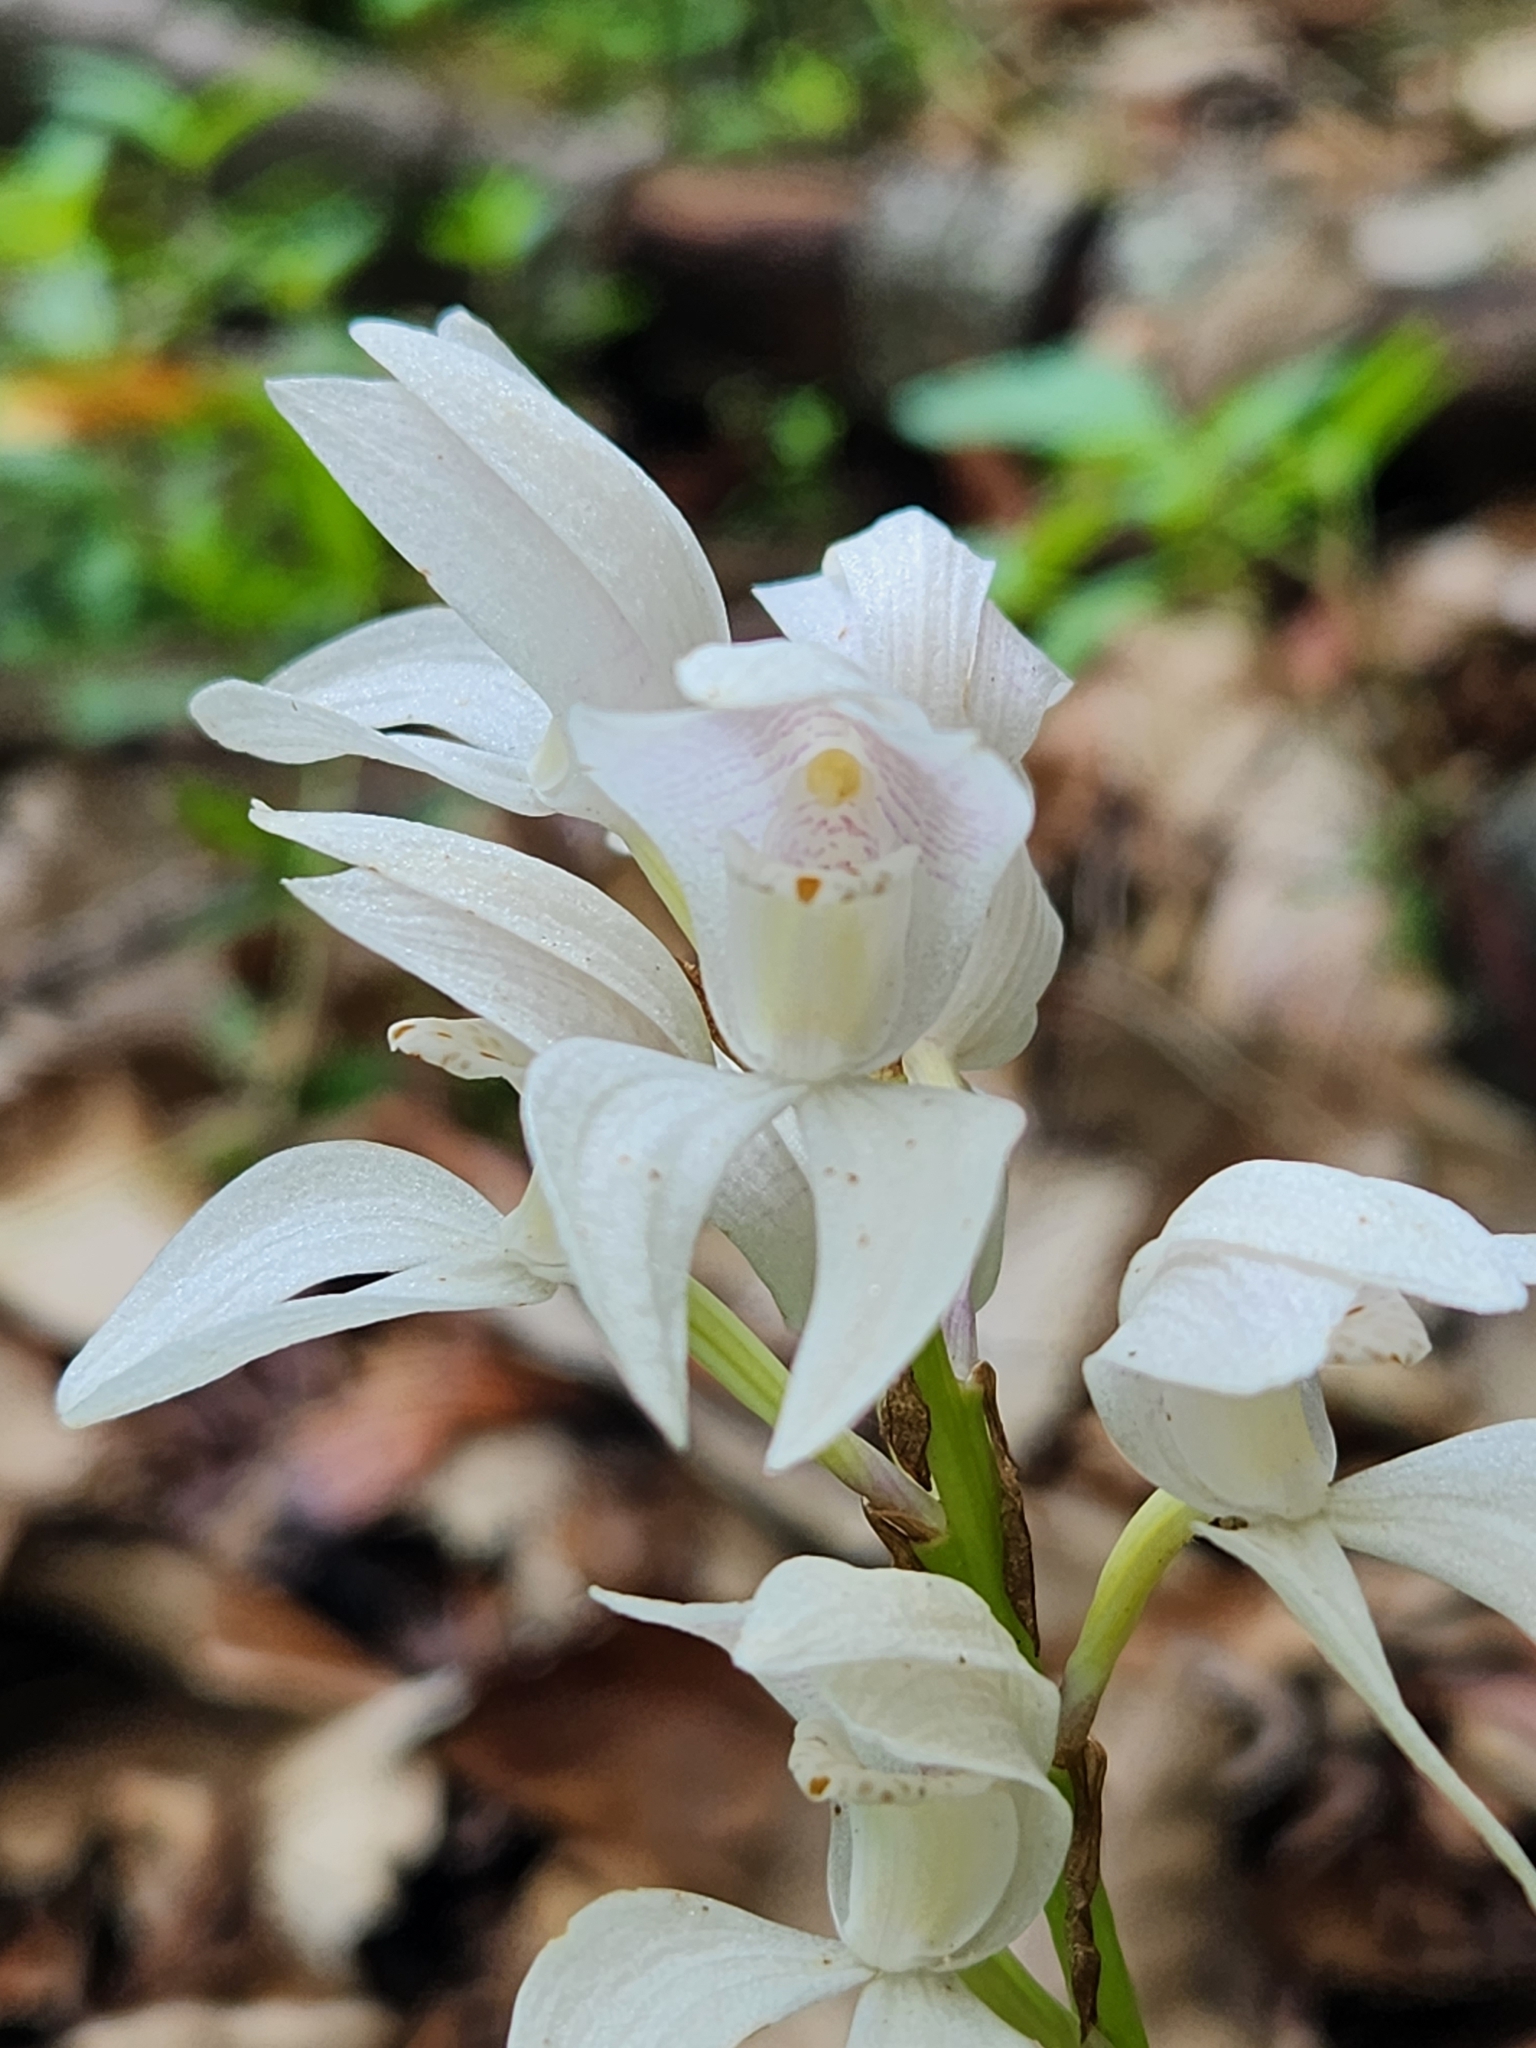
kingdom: Plantae
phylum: Tracheophyta
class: Liliopsida
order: Asparagales
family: Orchidaceae
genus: Govenia
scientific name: Govenia liliacea
